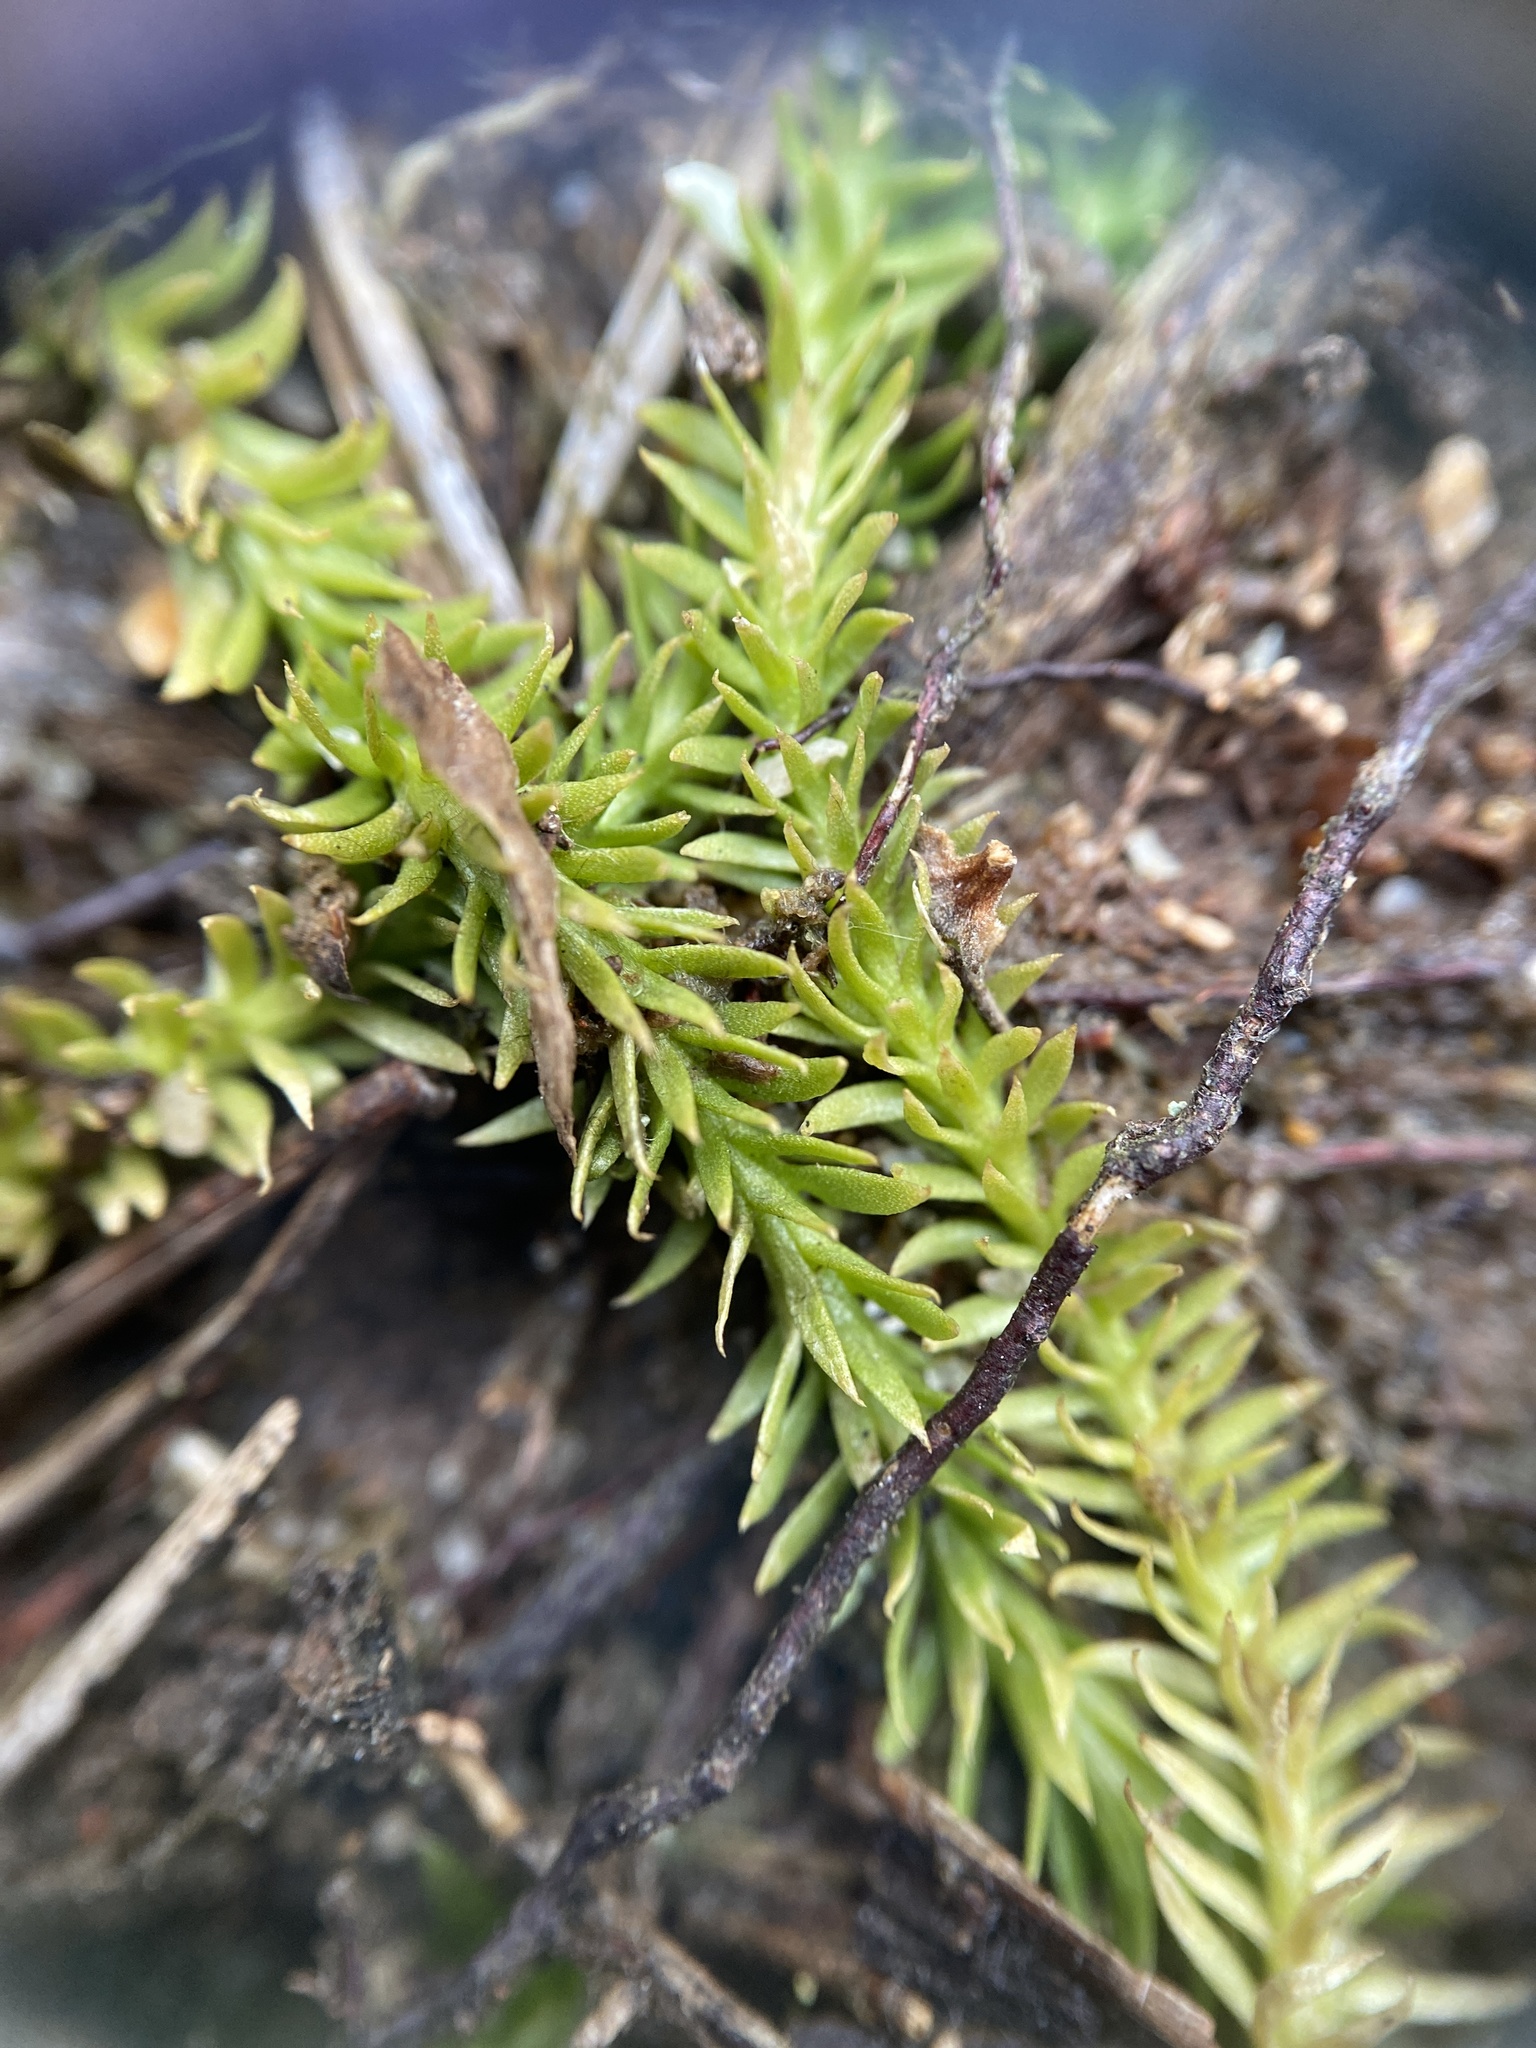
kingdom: Plantae
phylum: Tracheophyta
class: Lycopodiopsida
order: Lycopodiales
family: Lycopodiaceae
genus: Lycopodiella
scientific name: Lycopodiella inundata
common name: Marsh clubmoss
